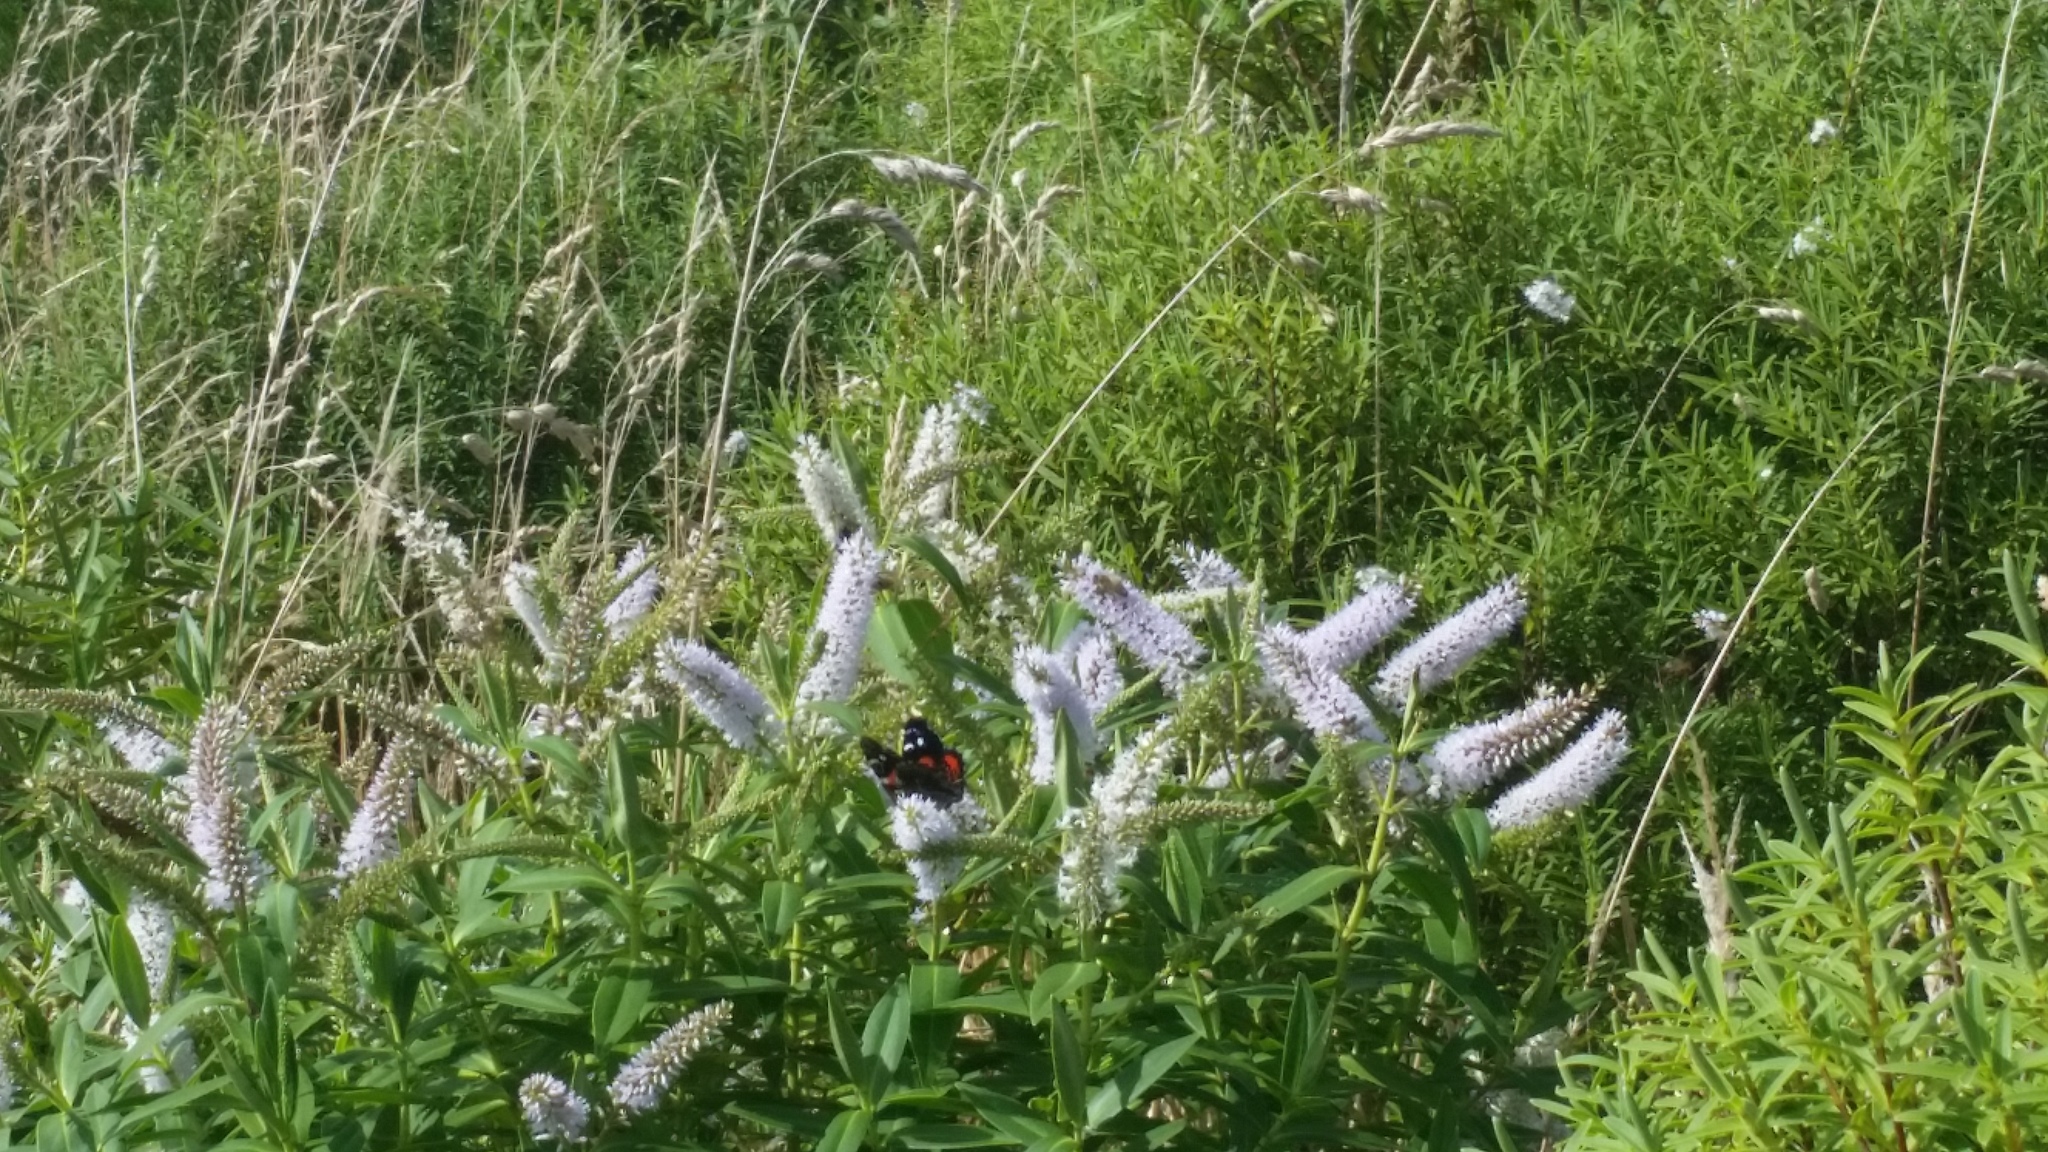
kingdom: Animalia
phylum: Arthropoda
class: Insecta
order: Lepidoptera
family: Nymphalidae
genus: Vanessa
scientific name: Vanessa gonerilla
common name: New zealand red admiral
